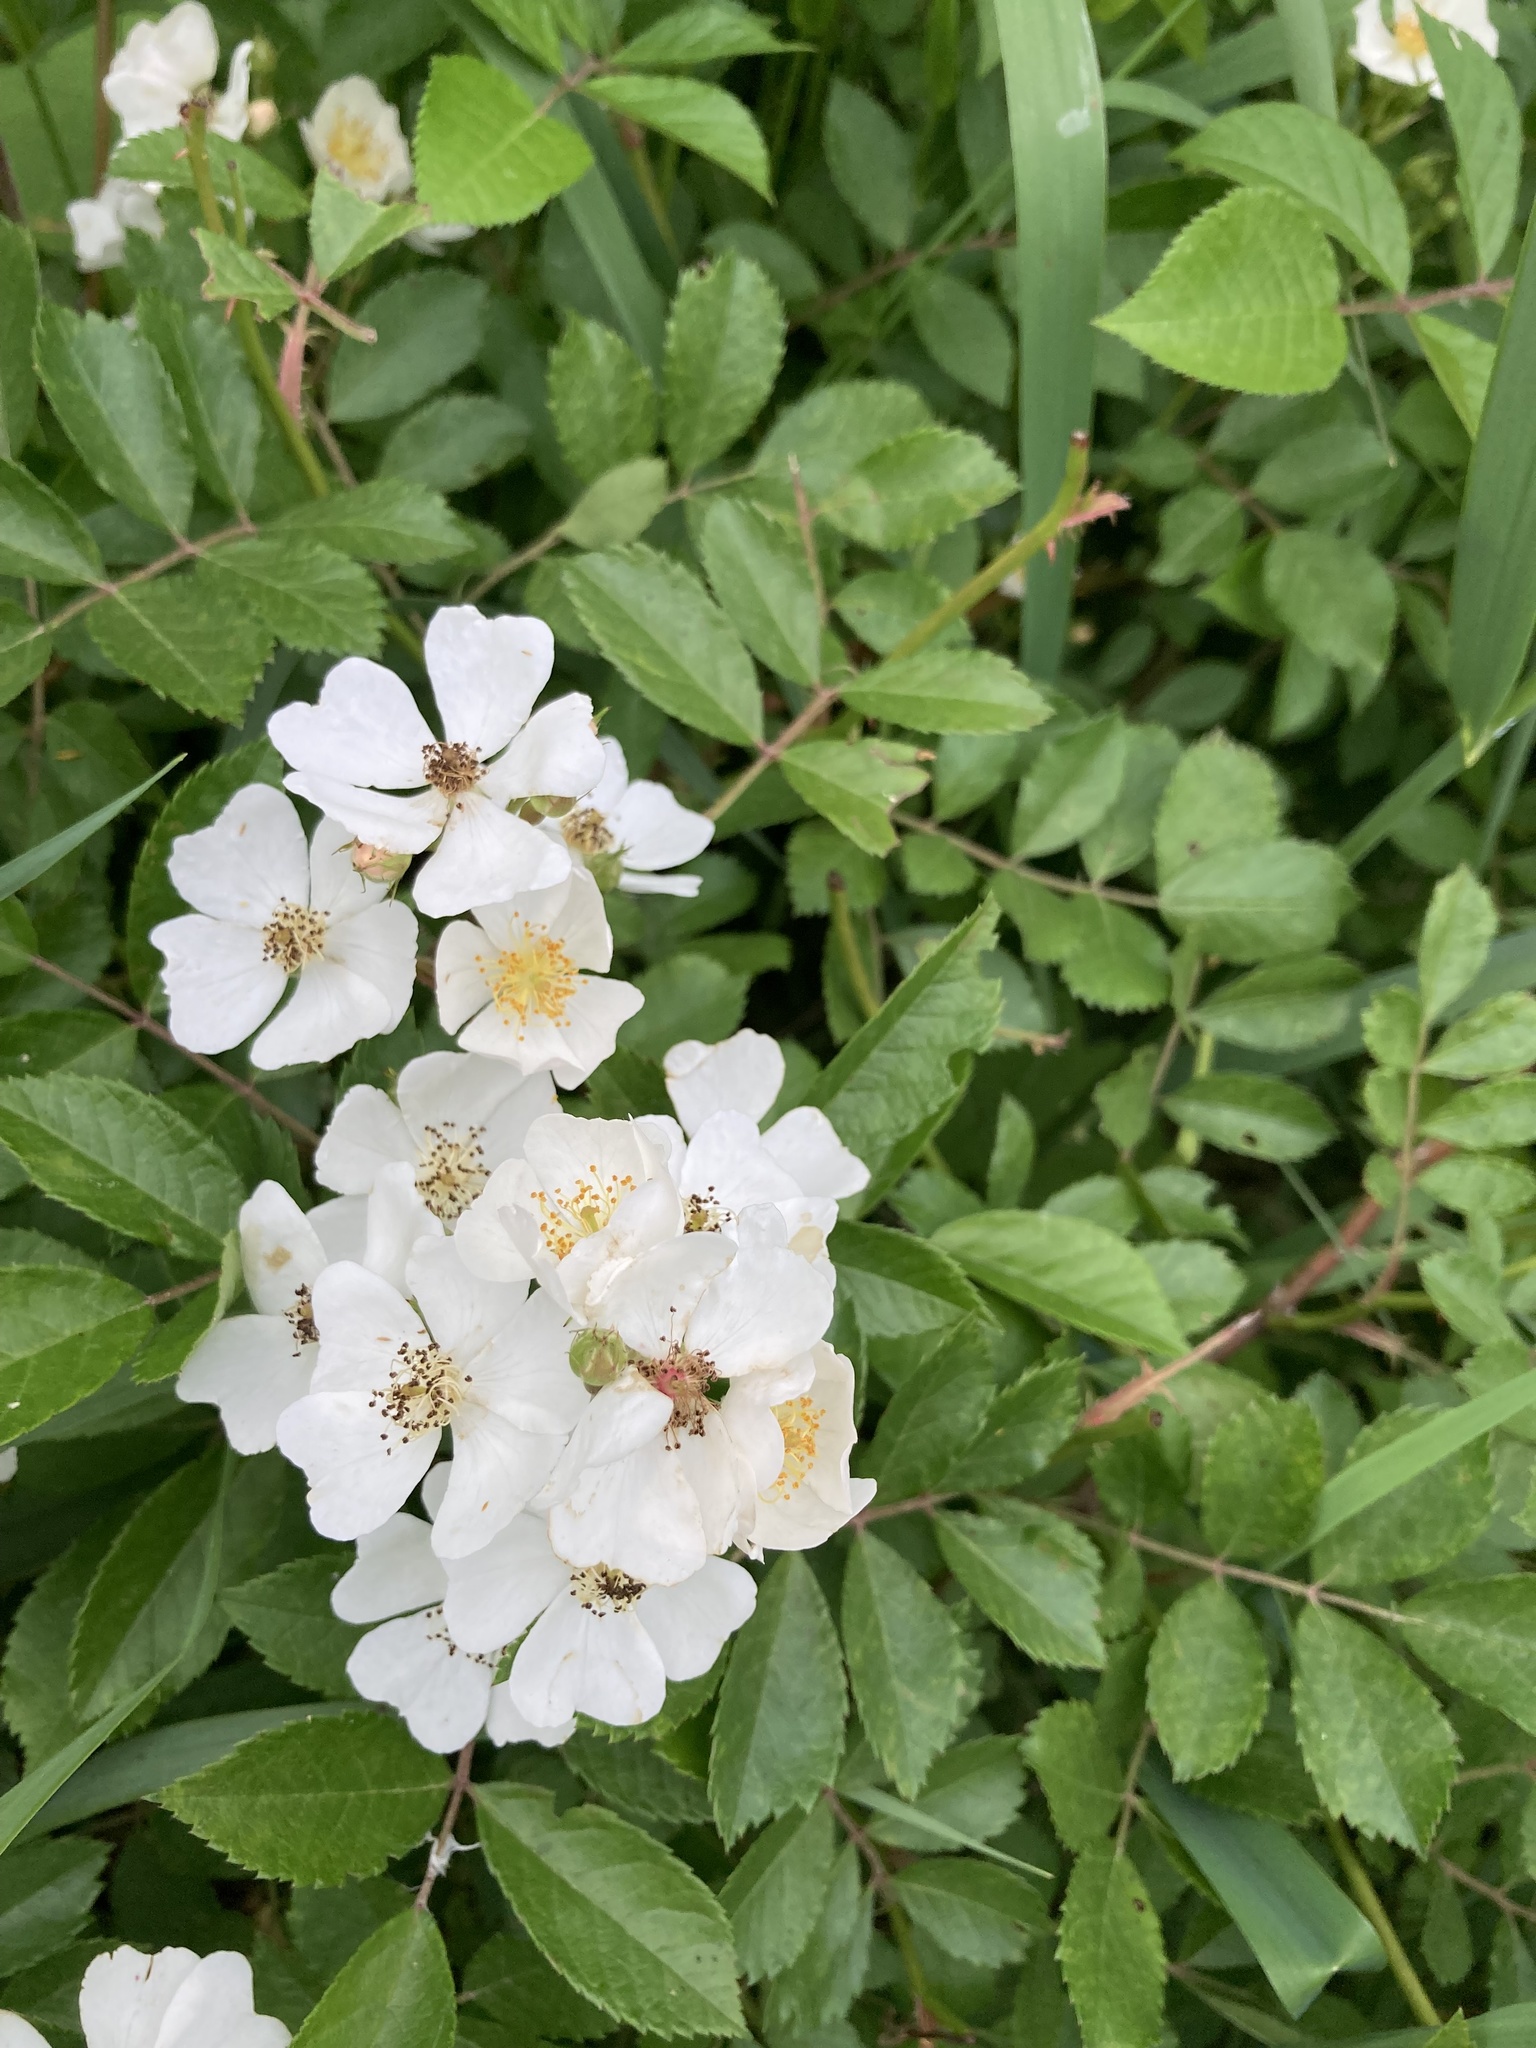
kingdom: Plantae
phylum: Tracheophyta
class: Magnoliopsida
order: Rosales
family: Rosaceae
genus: Rosa
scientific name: Rosa multiflora
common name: Multiflora rose
